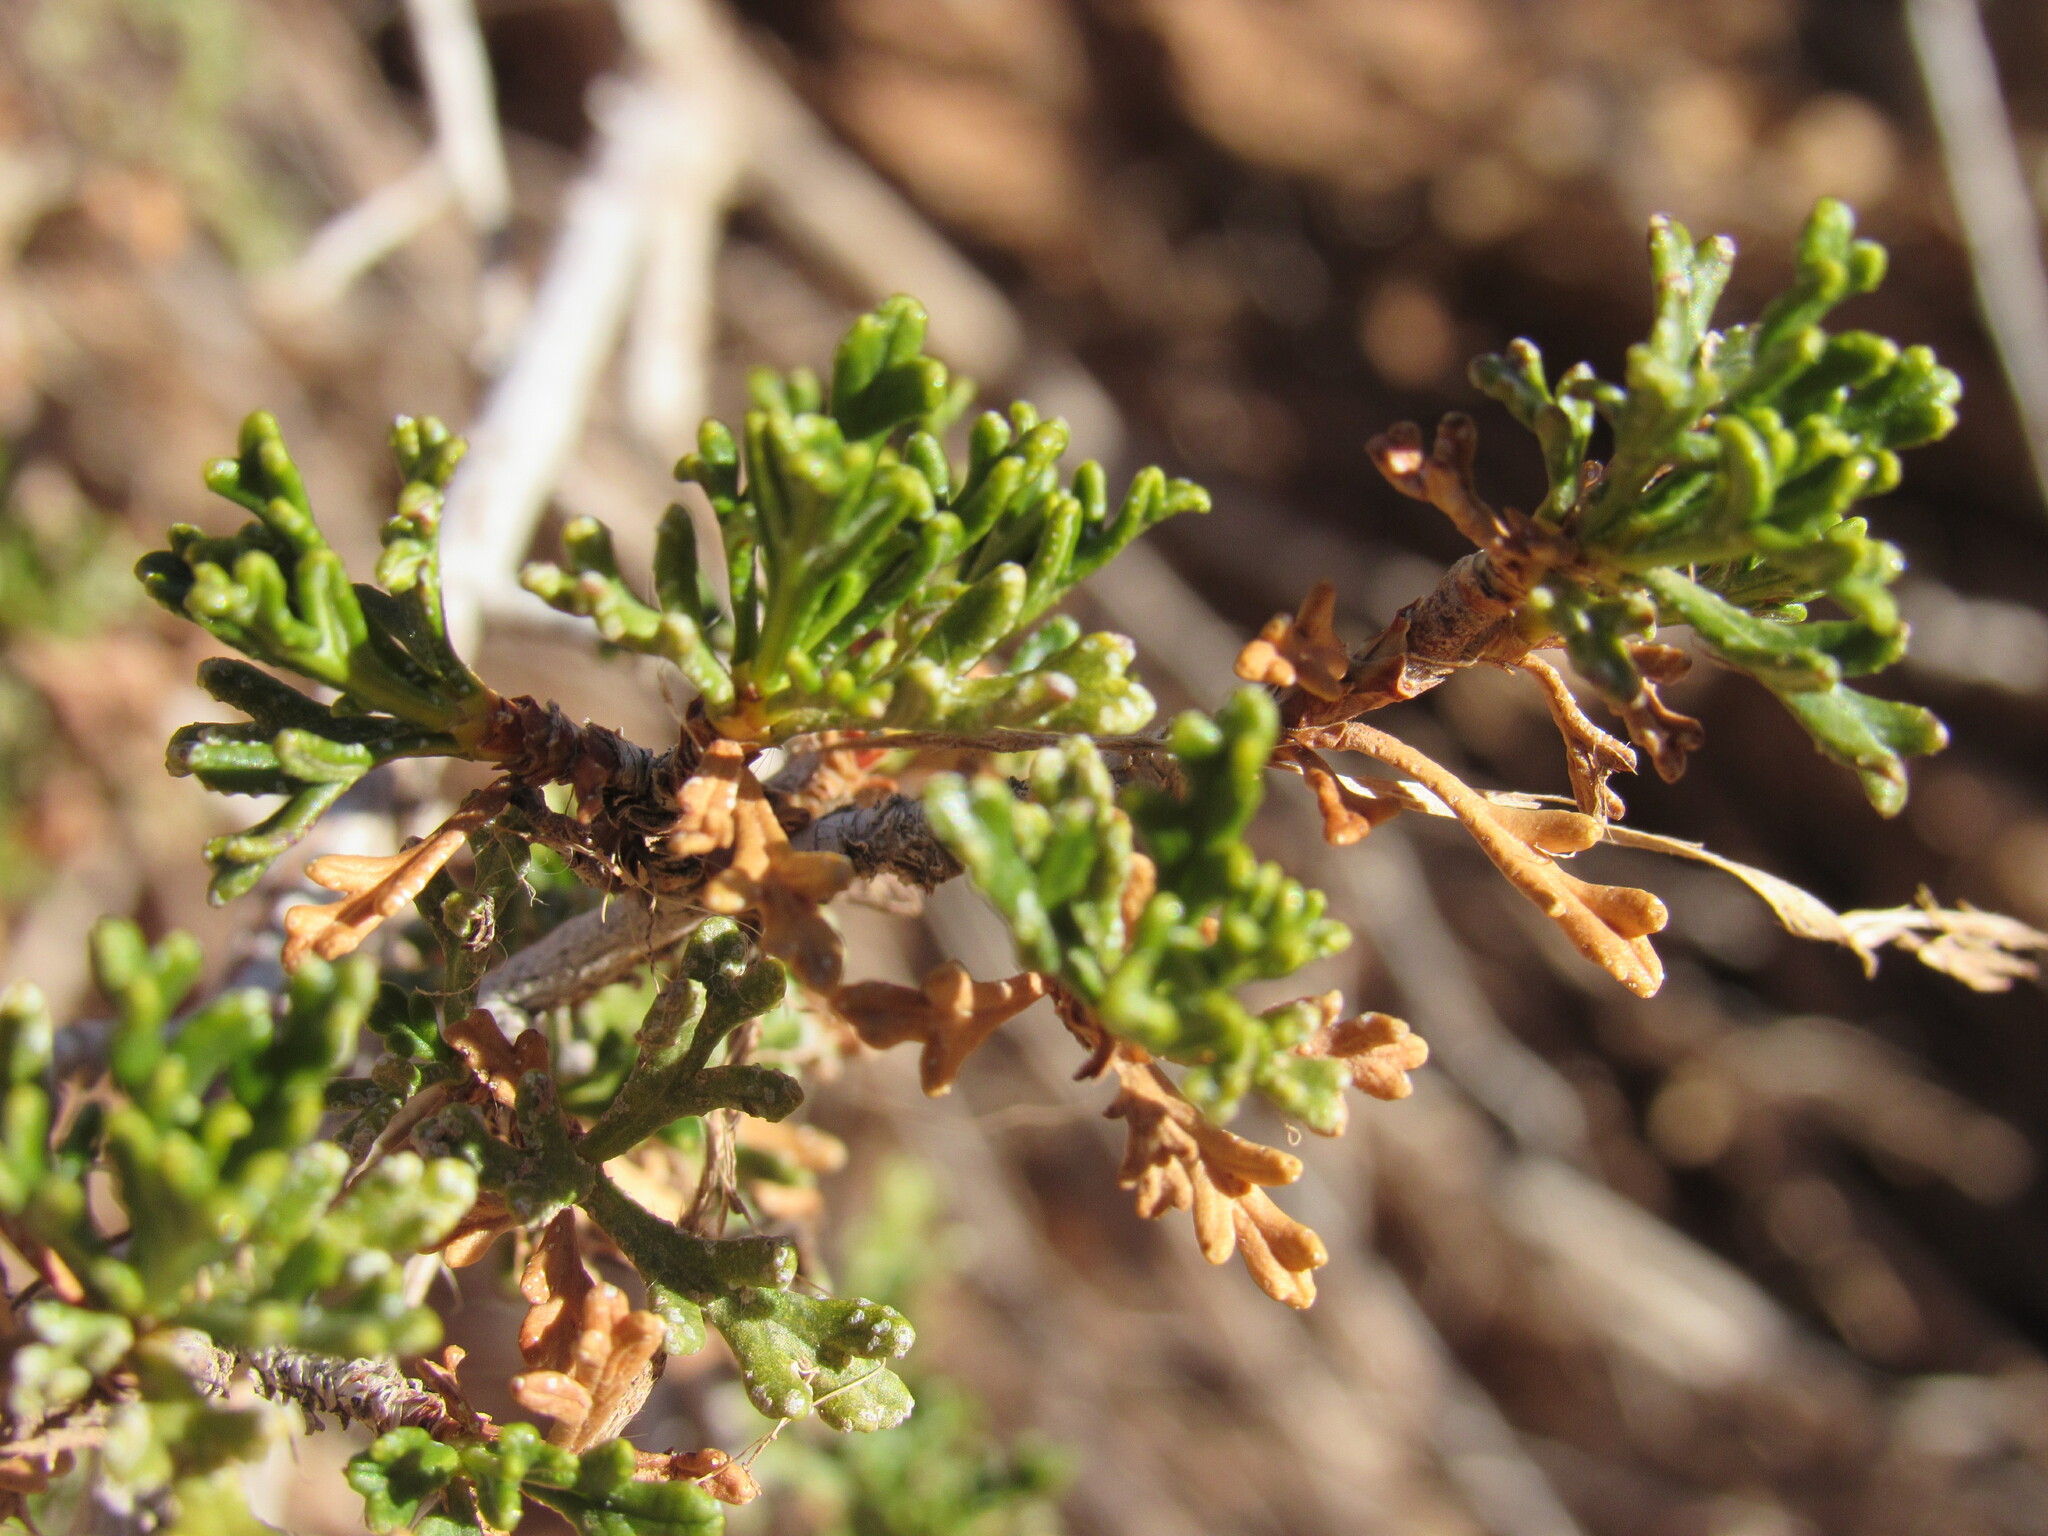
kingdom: Plantae
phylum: Tracheophyta
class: Magnoliopsida
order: Rosales
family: Rosaceae
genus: Purshia
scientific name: Purshia stansburiana
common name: Stansbury's cliffrose
